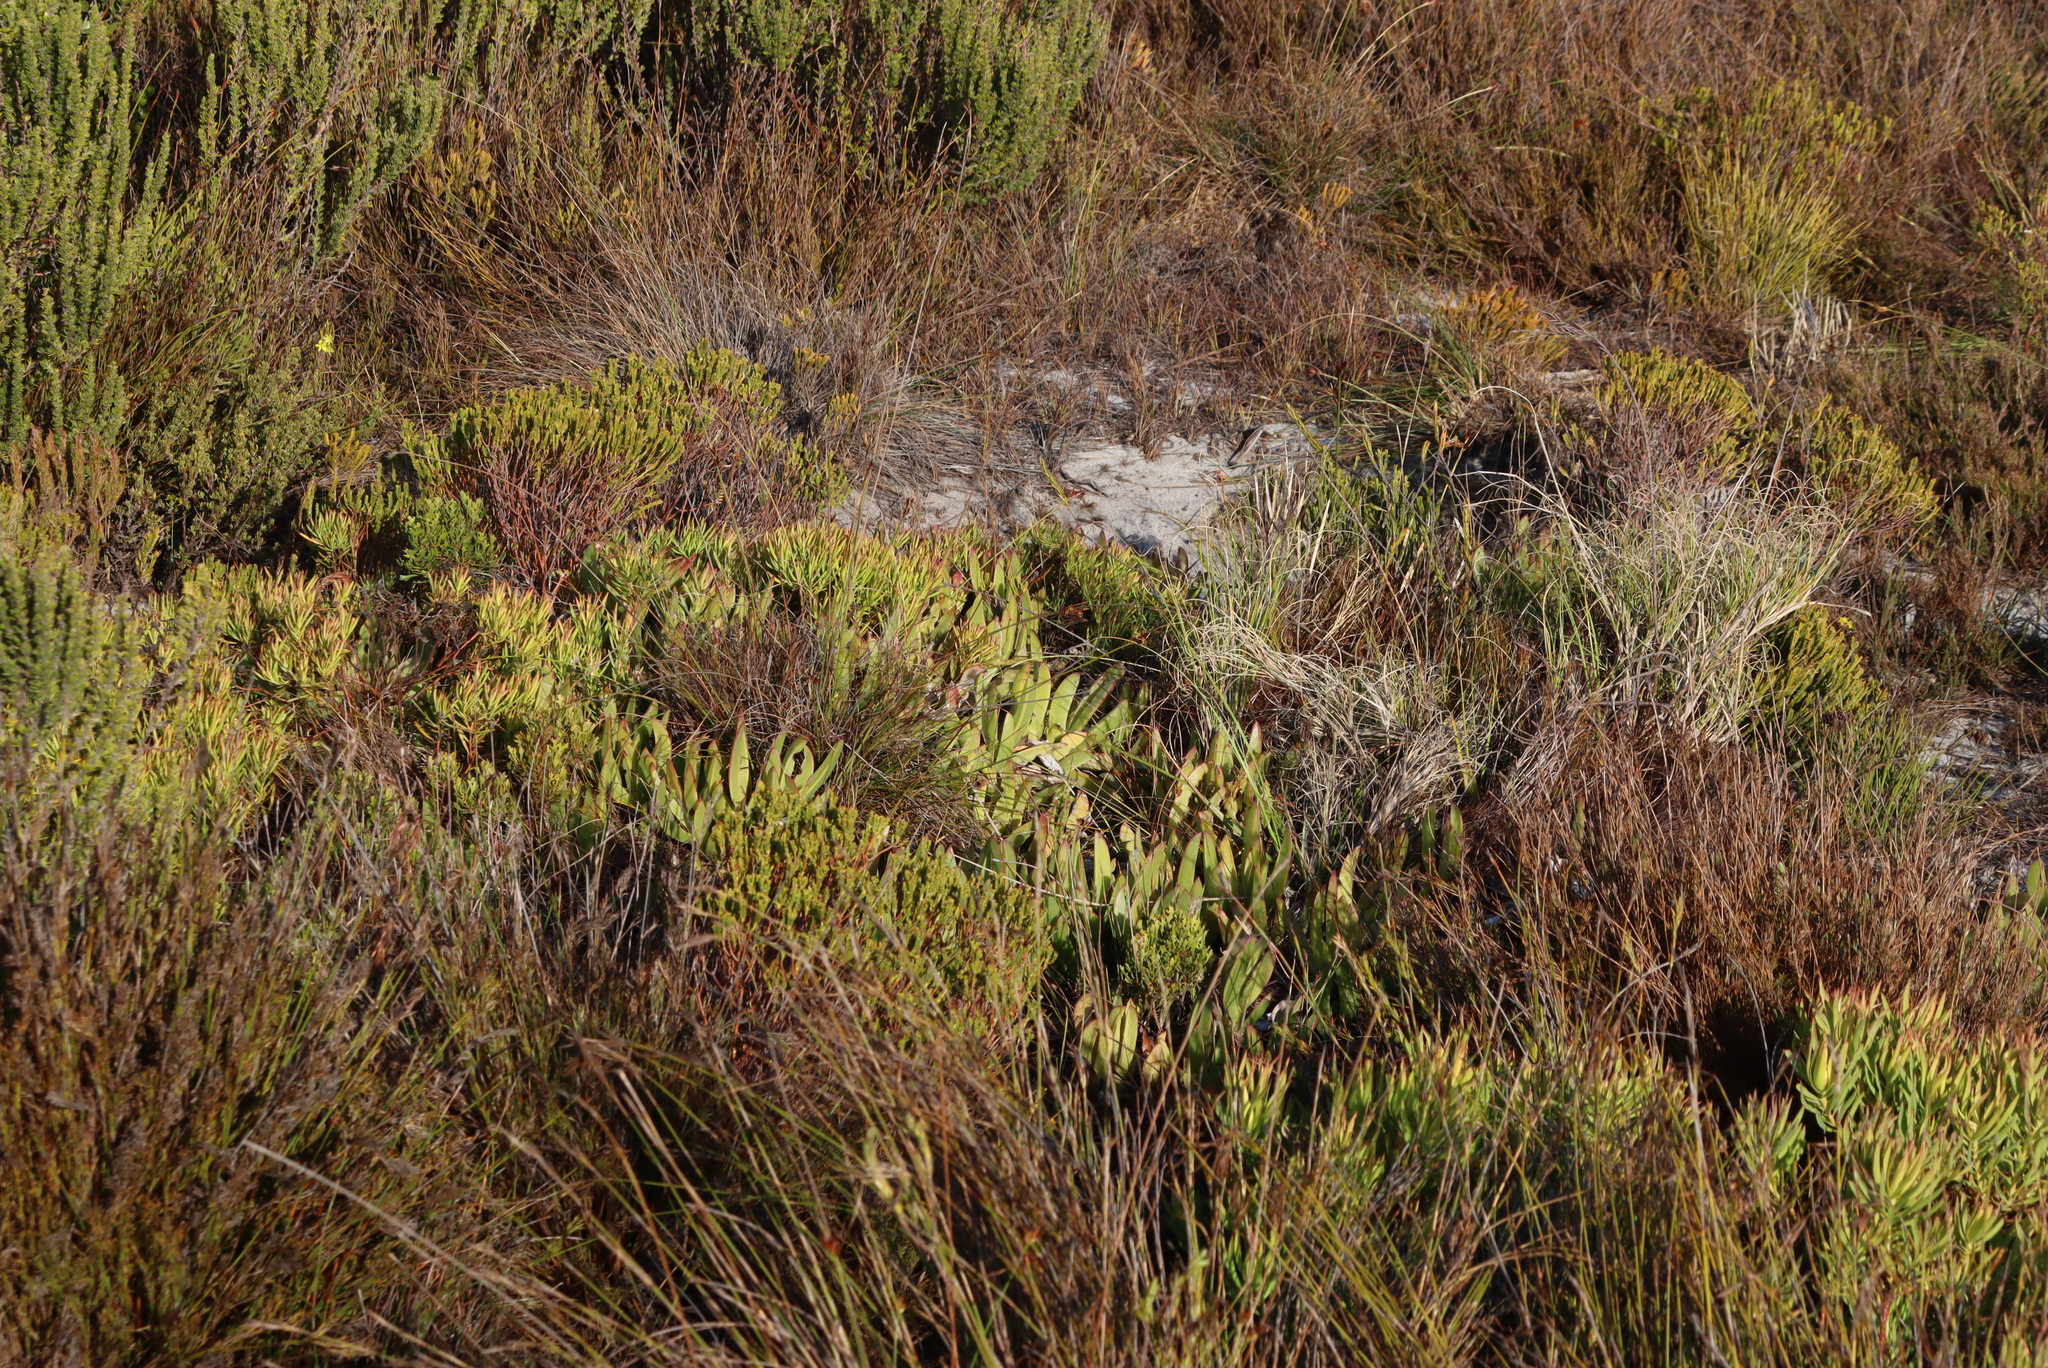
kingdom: Plantae
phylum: Tracheophyta
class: Magnoliopsida
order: Caryophyllales
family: Aizoaceae
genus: Carpobrotus
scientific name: Carpobrotus acinaciformis
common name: Sally-my-handsome
